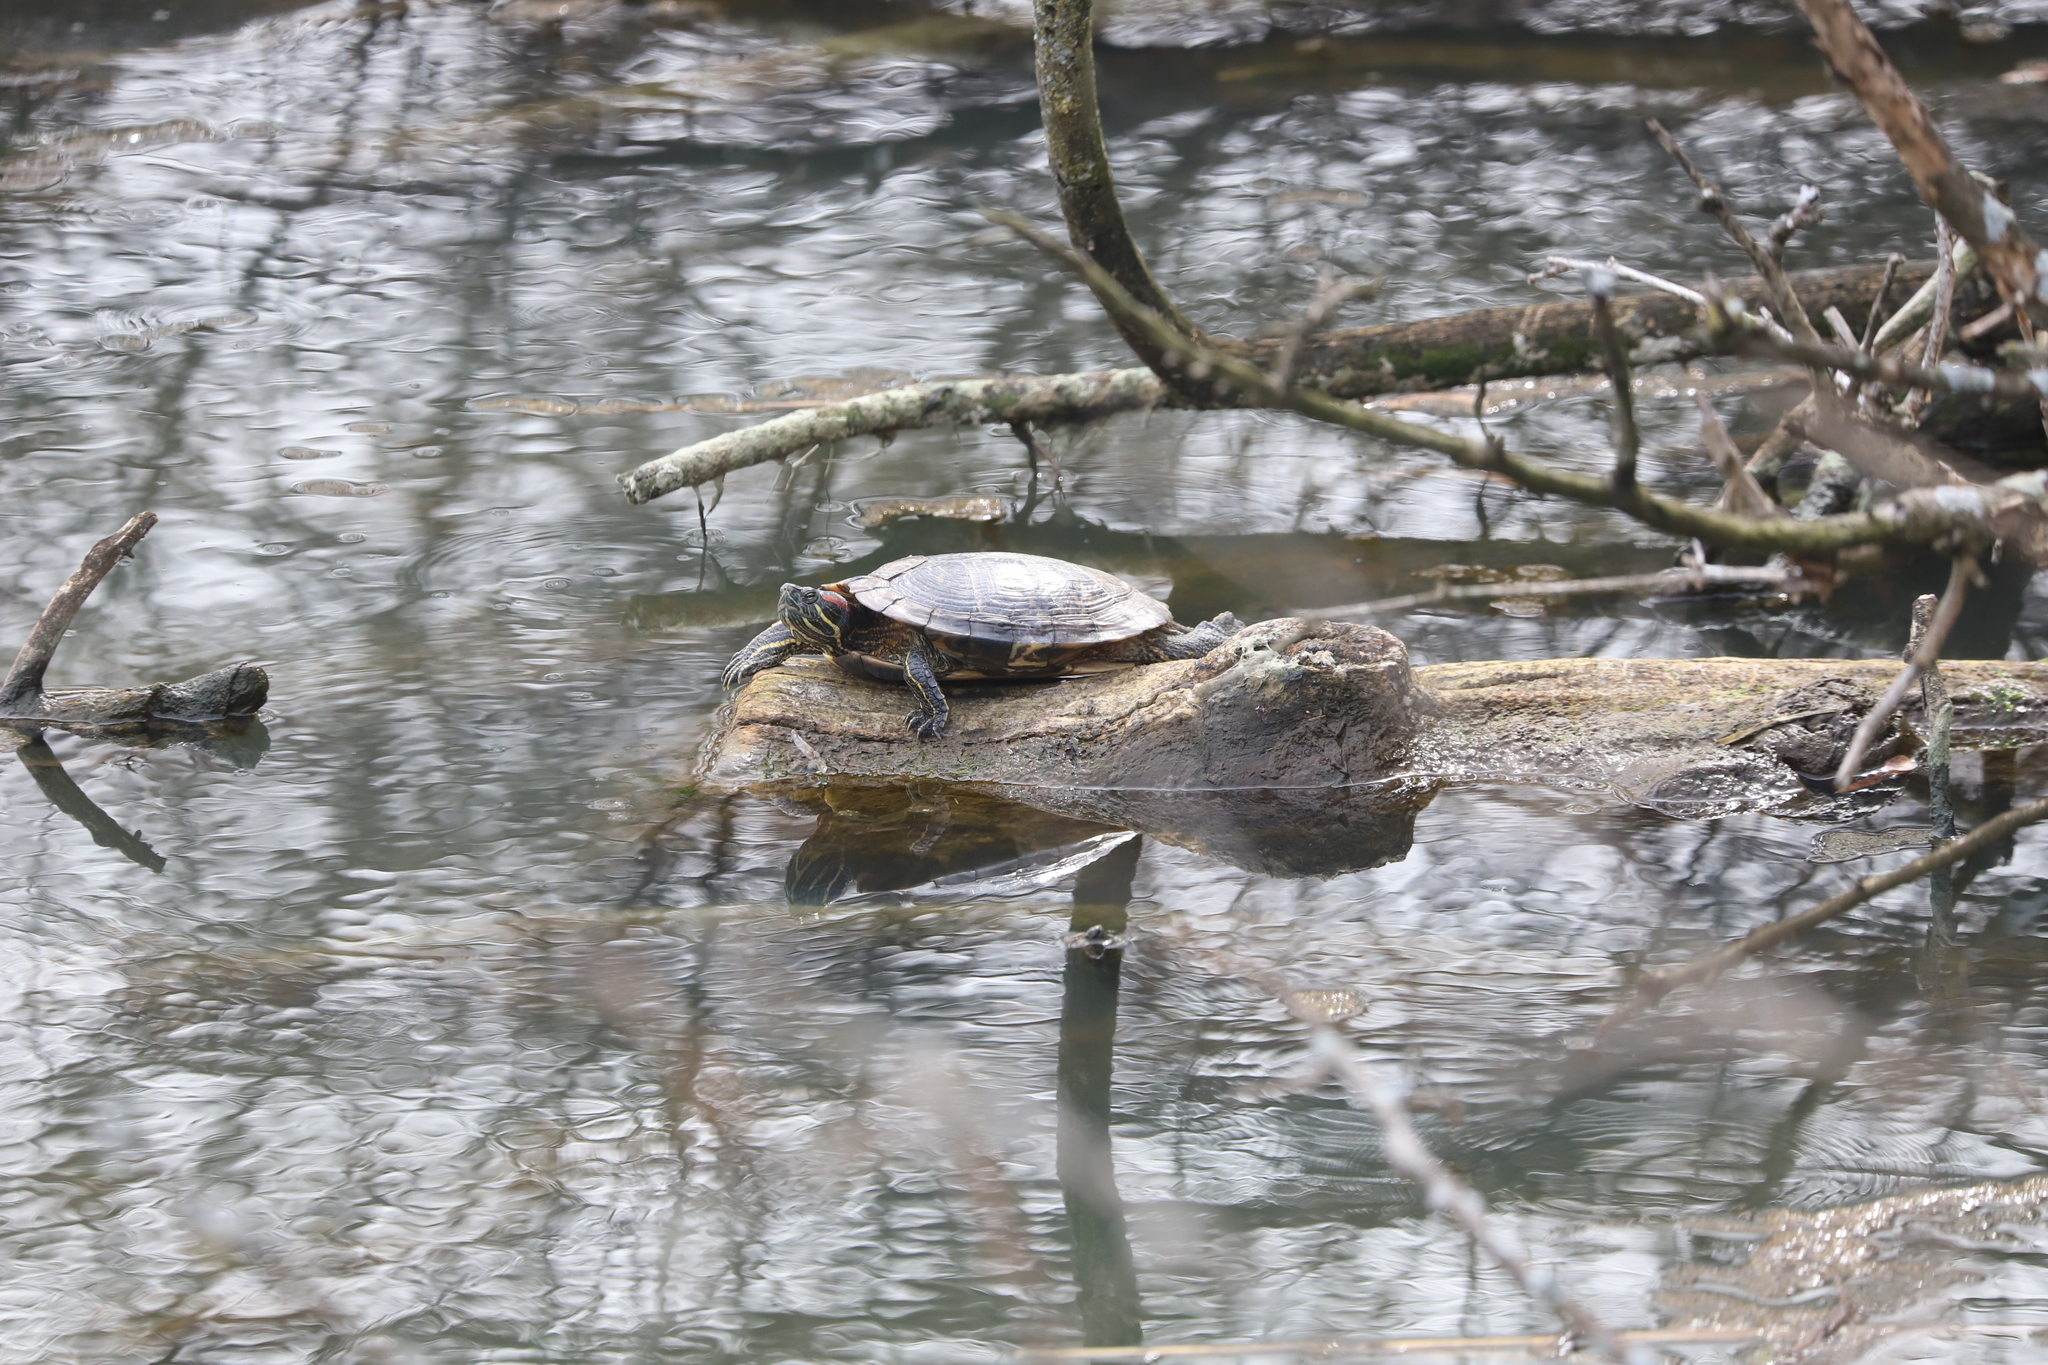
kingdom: Animalia
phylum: Chordata
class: Testudines
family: Emydidae
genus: Trachemys
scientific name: Trachemys scripta
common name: Slider
